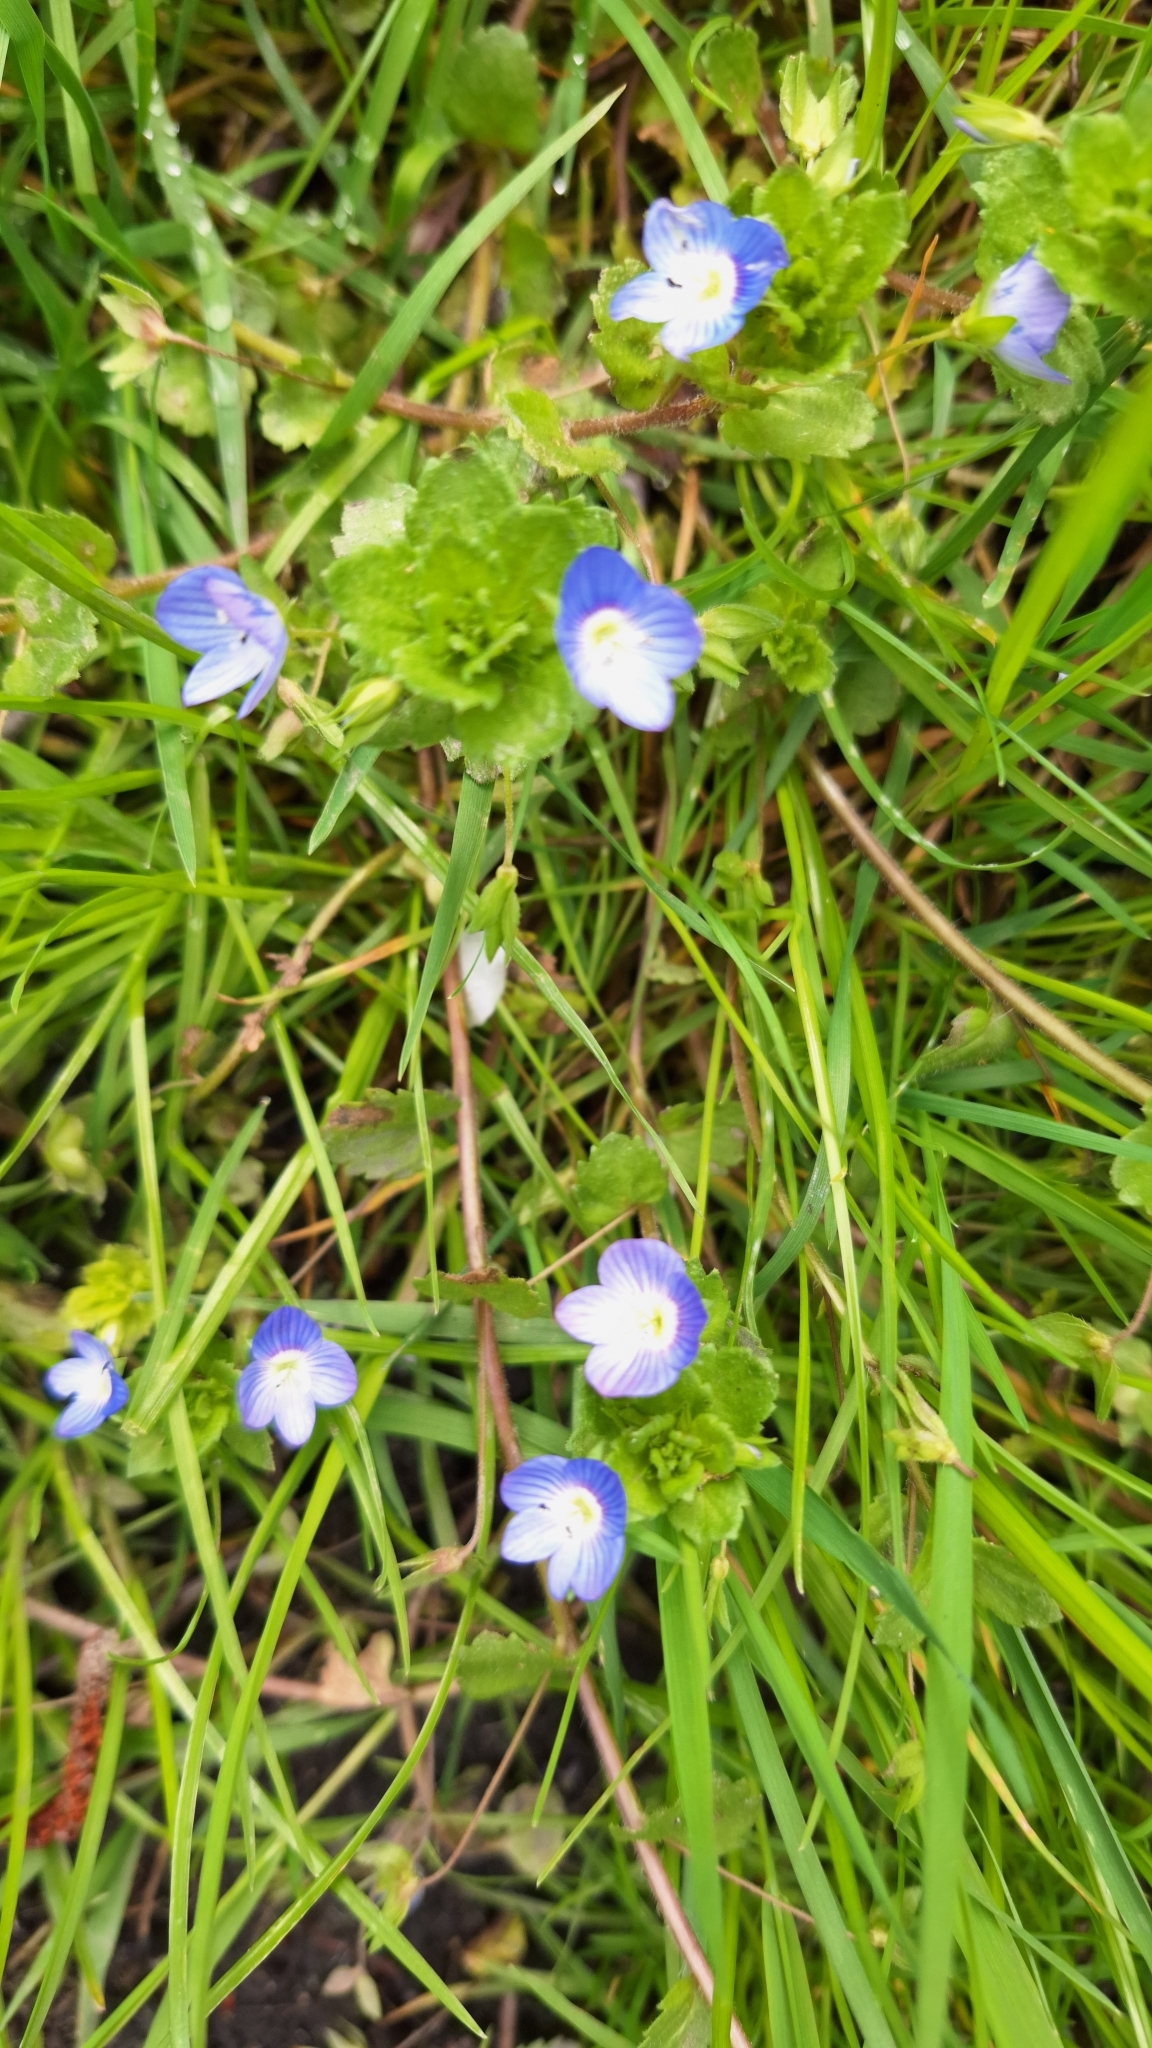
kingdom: Plantae
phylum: Tracheophyta
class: Magnoliopsida
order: Lamiales
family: Plantaginaceae
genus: Veronica
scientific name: Veronica persica
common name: Common field-speedwell
